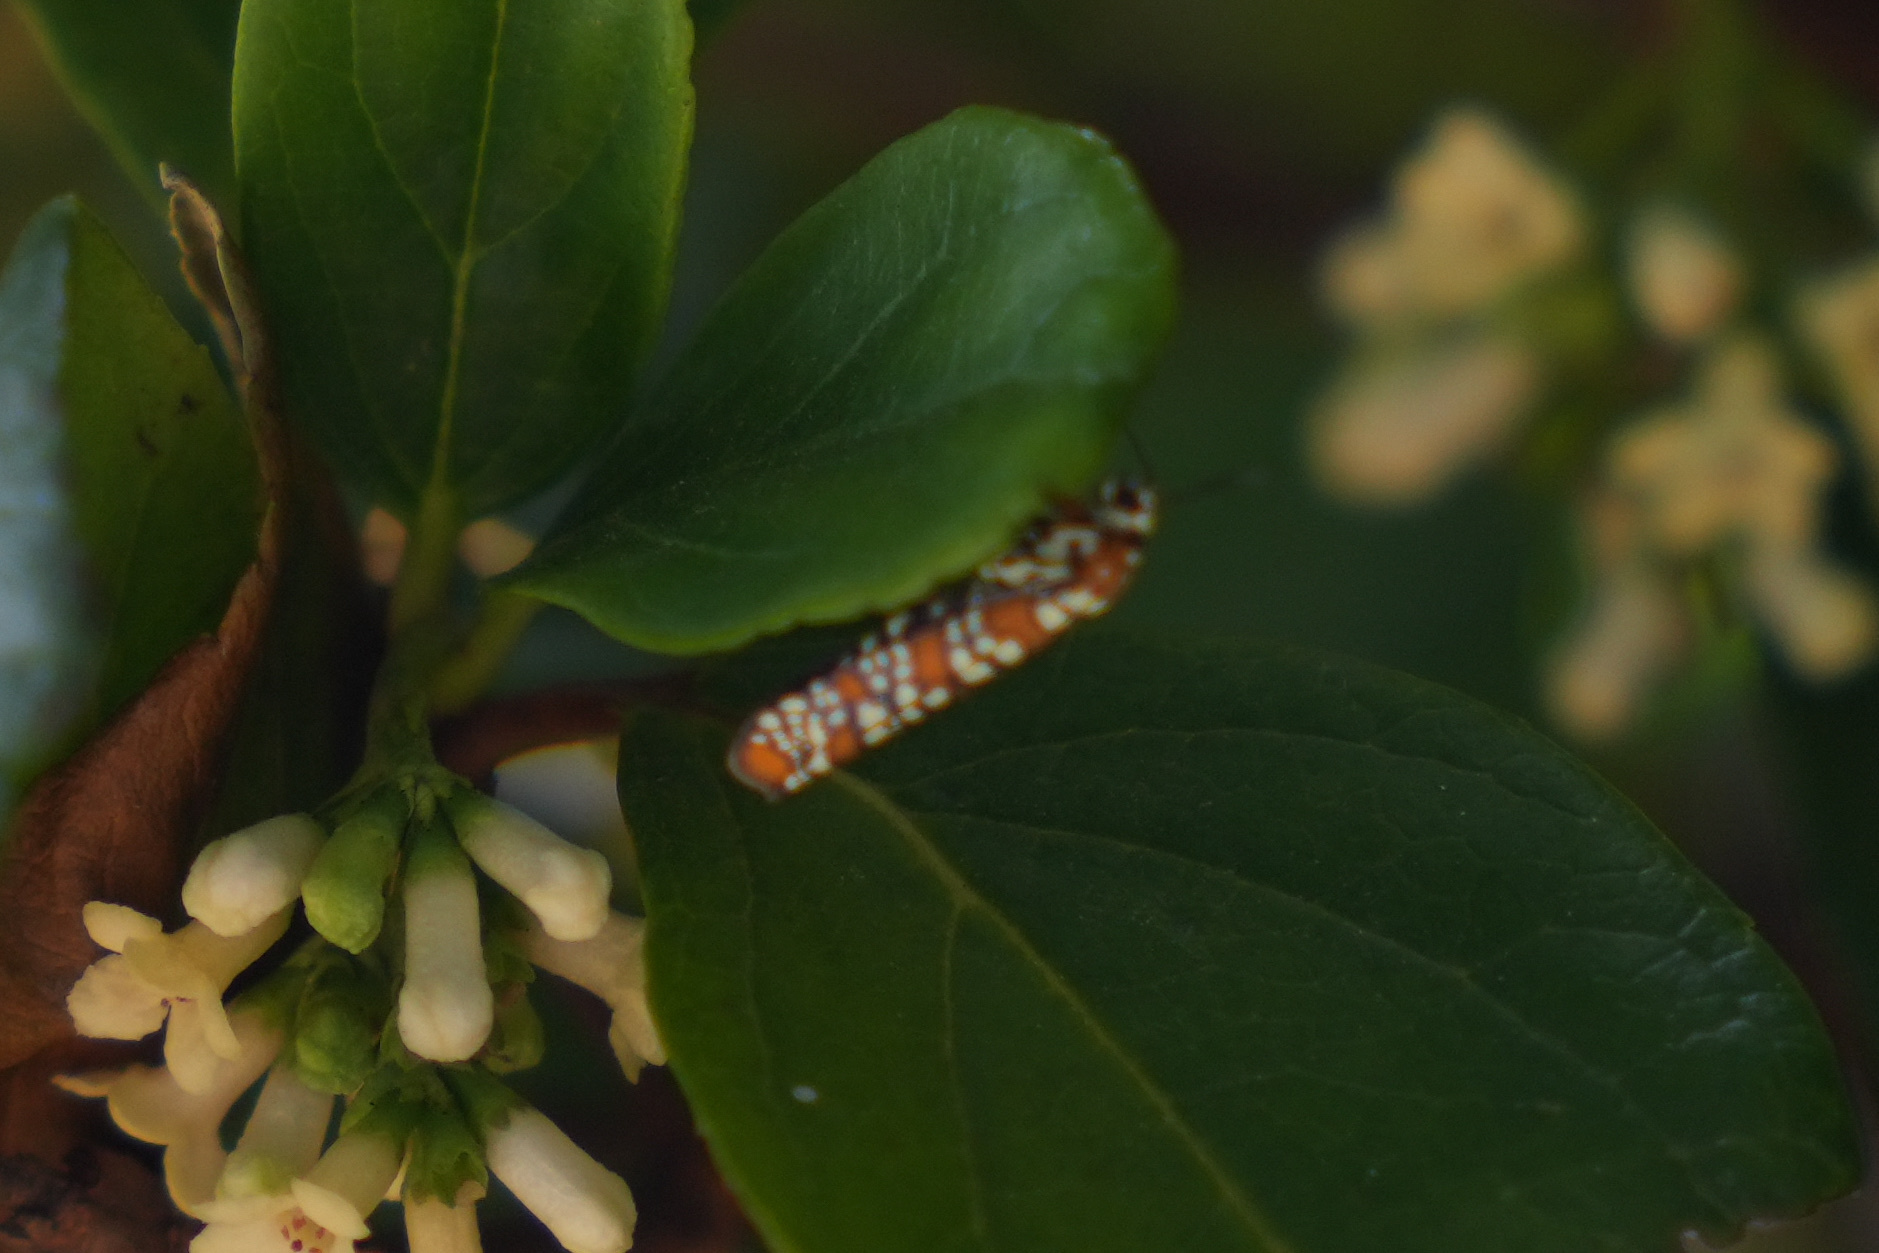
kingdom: Animalia
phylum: Arthropoda
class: Insecta
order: Lepidoptera
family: Attevidae
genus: Atteva
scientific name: Atteva punctella
